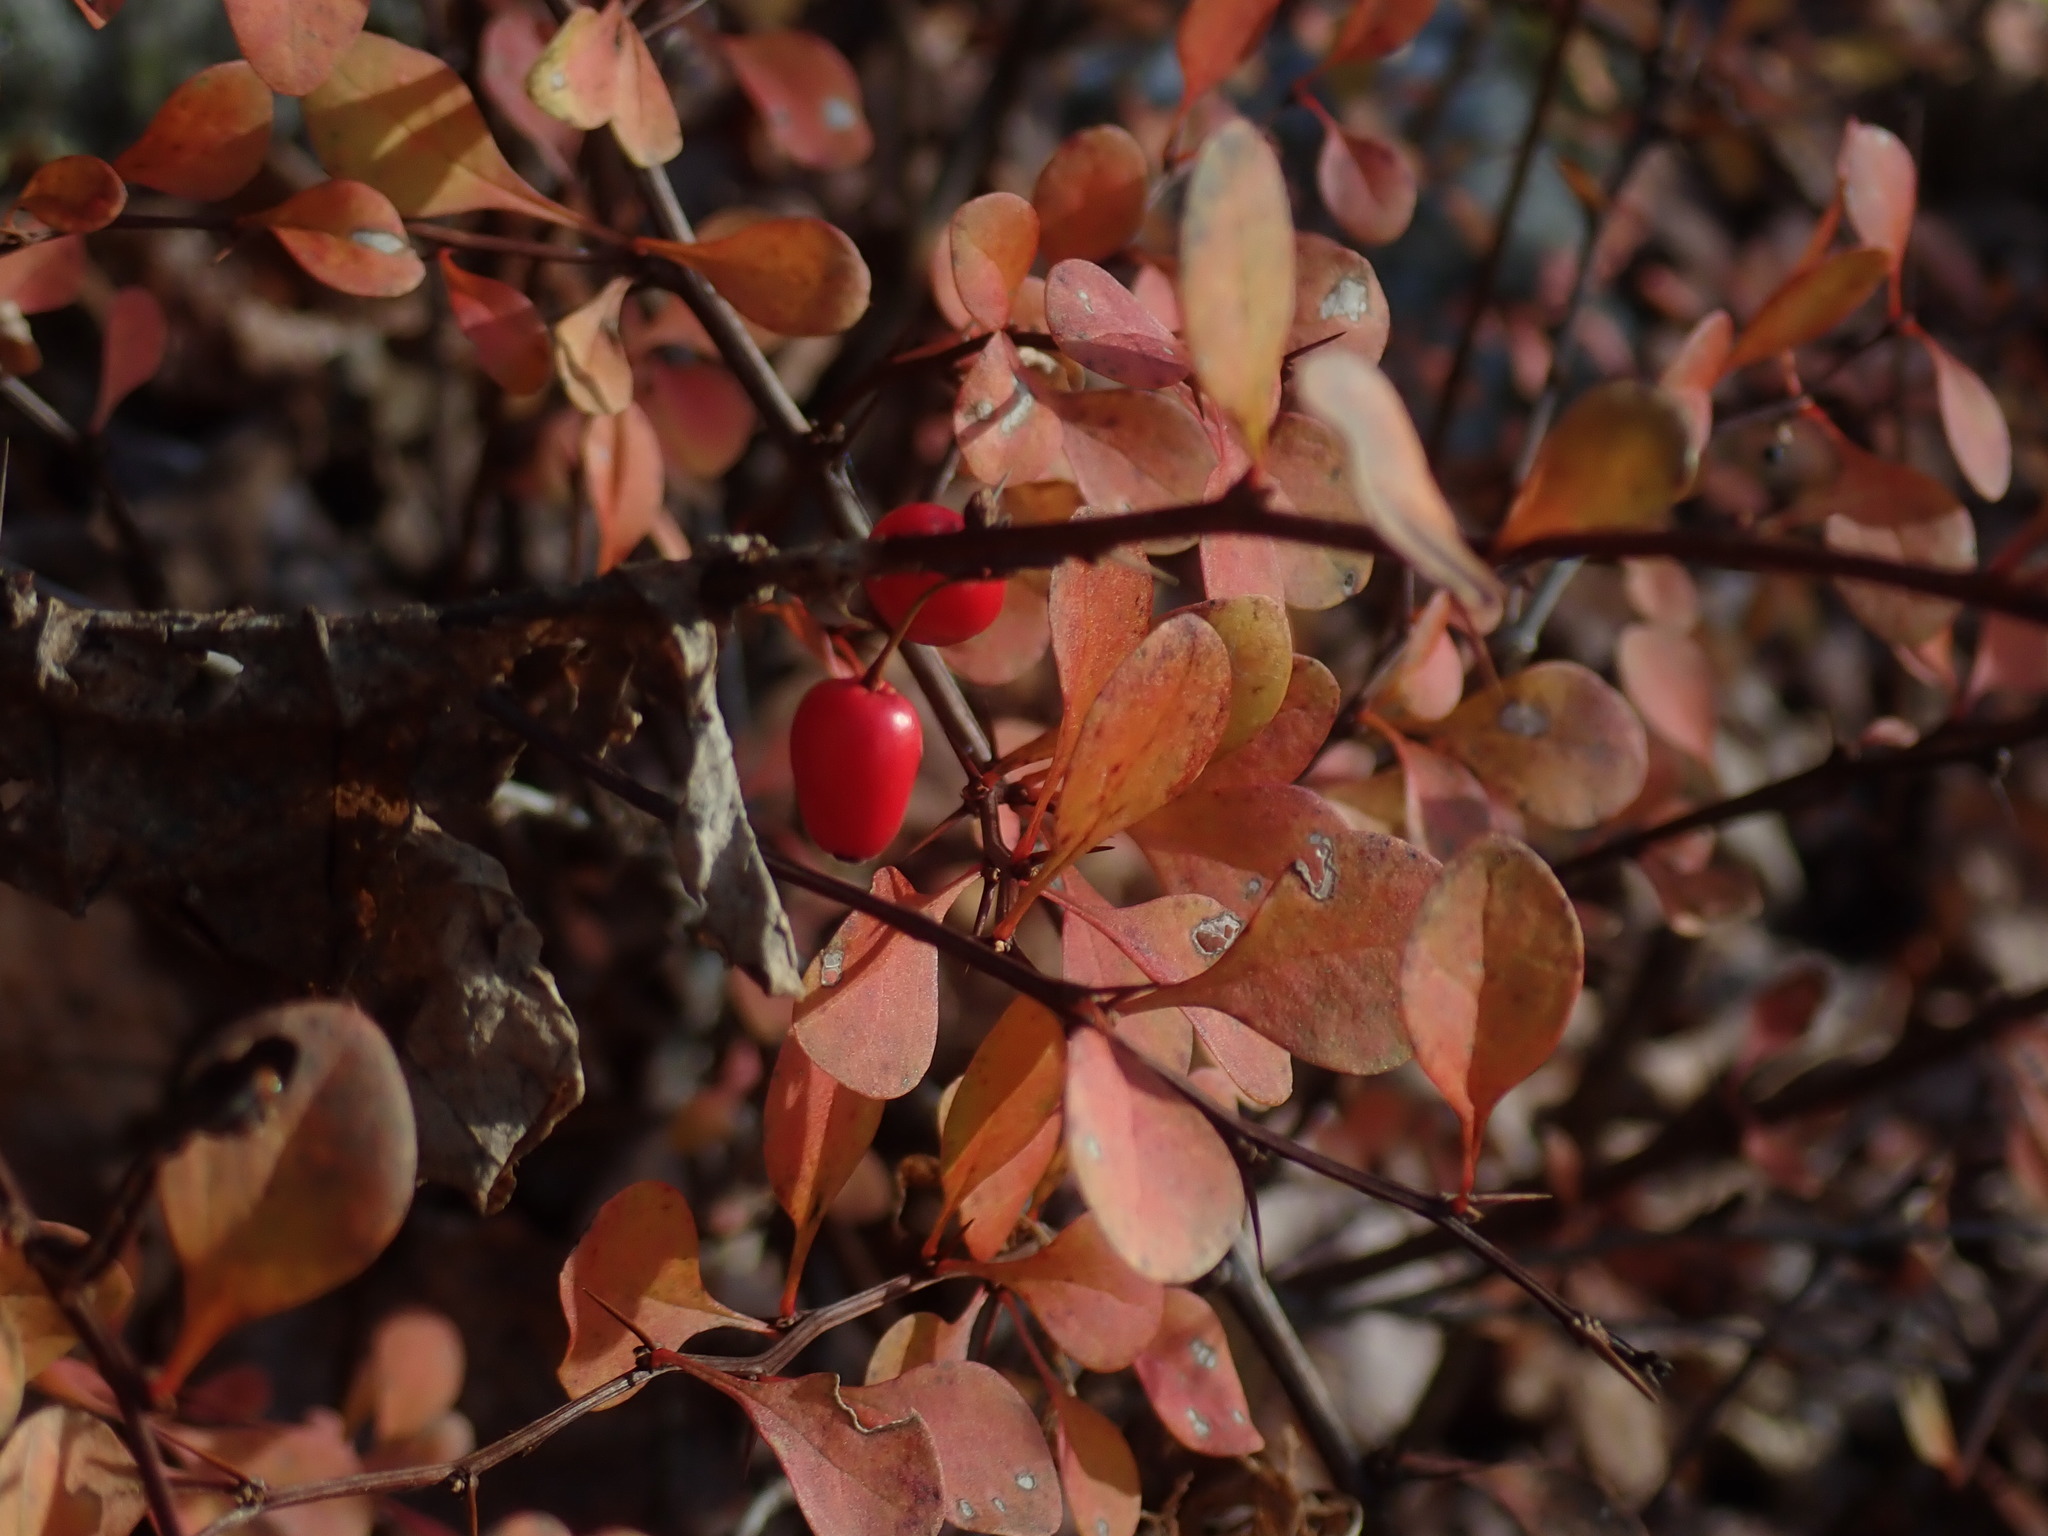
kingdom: Plantae
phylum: Tracheophyta
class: Magnoliopsida
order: Ranunculales
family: Berberidaceae
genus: Berberis
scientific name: Berberis thunbergii
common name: Japanese barberry
